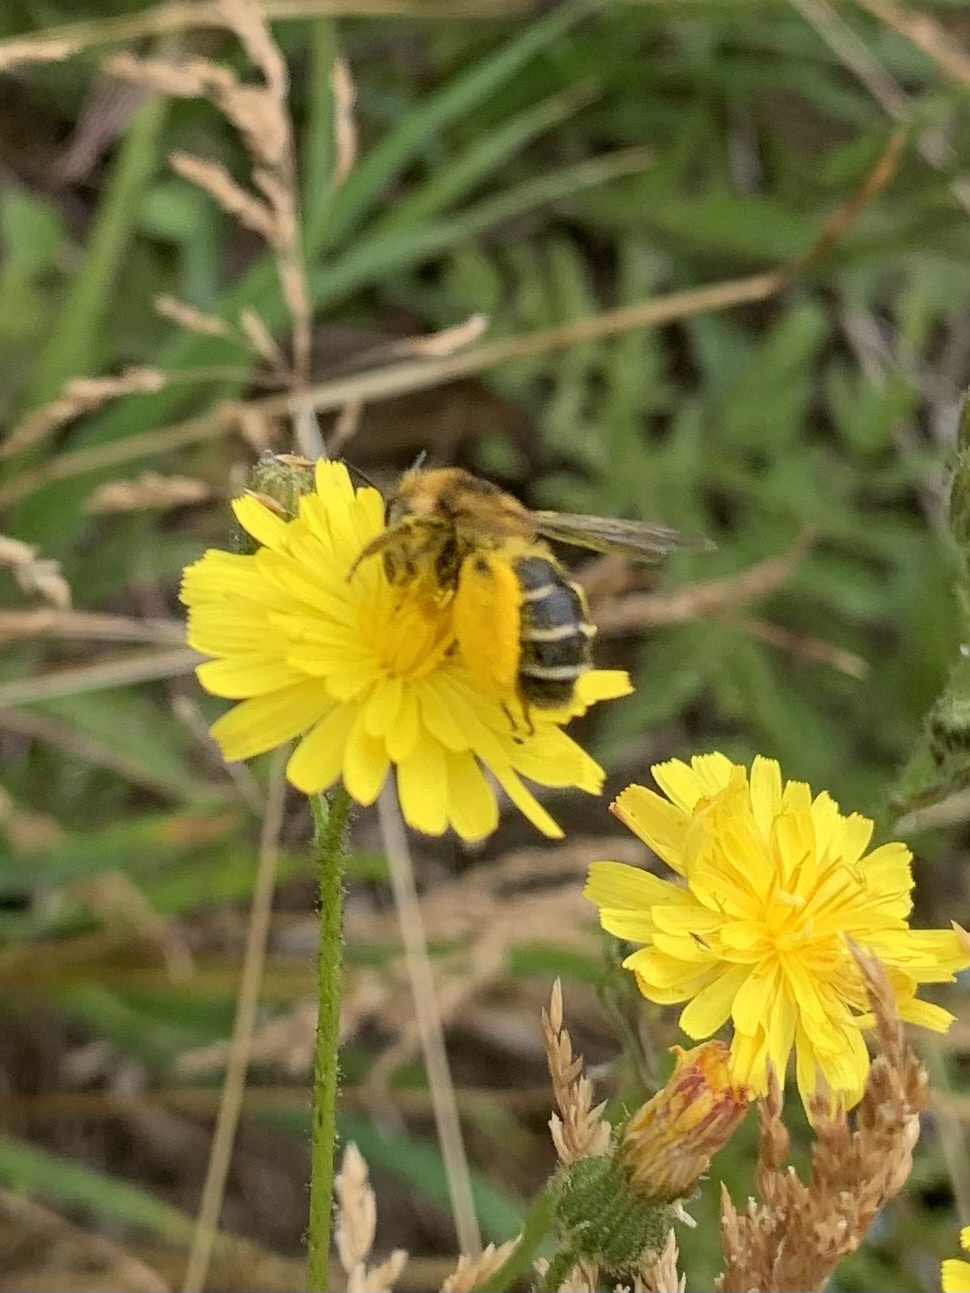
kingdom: Animalia
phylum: Arthropoda
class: Insecta
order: Hymenoptera
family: Melittidae
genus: Dasypoda
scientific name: Dasypoda hirtipes
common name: Pantaloon bee
